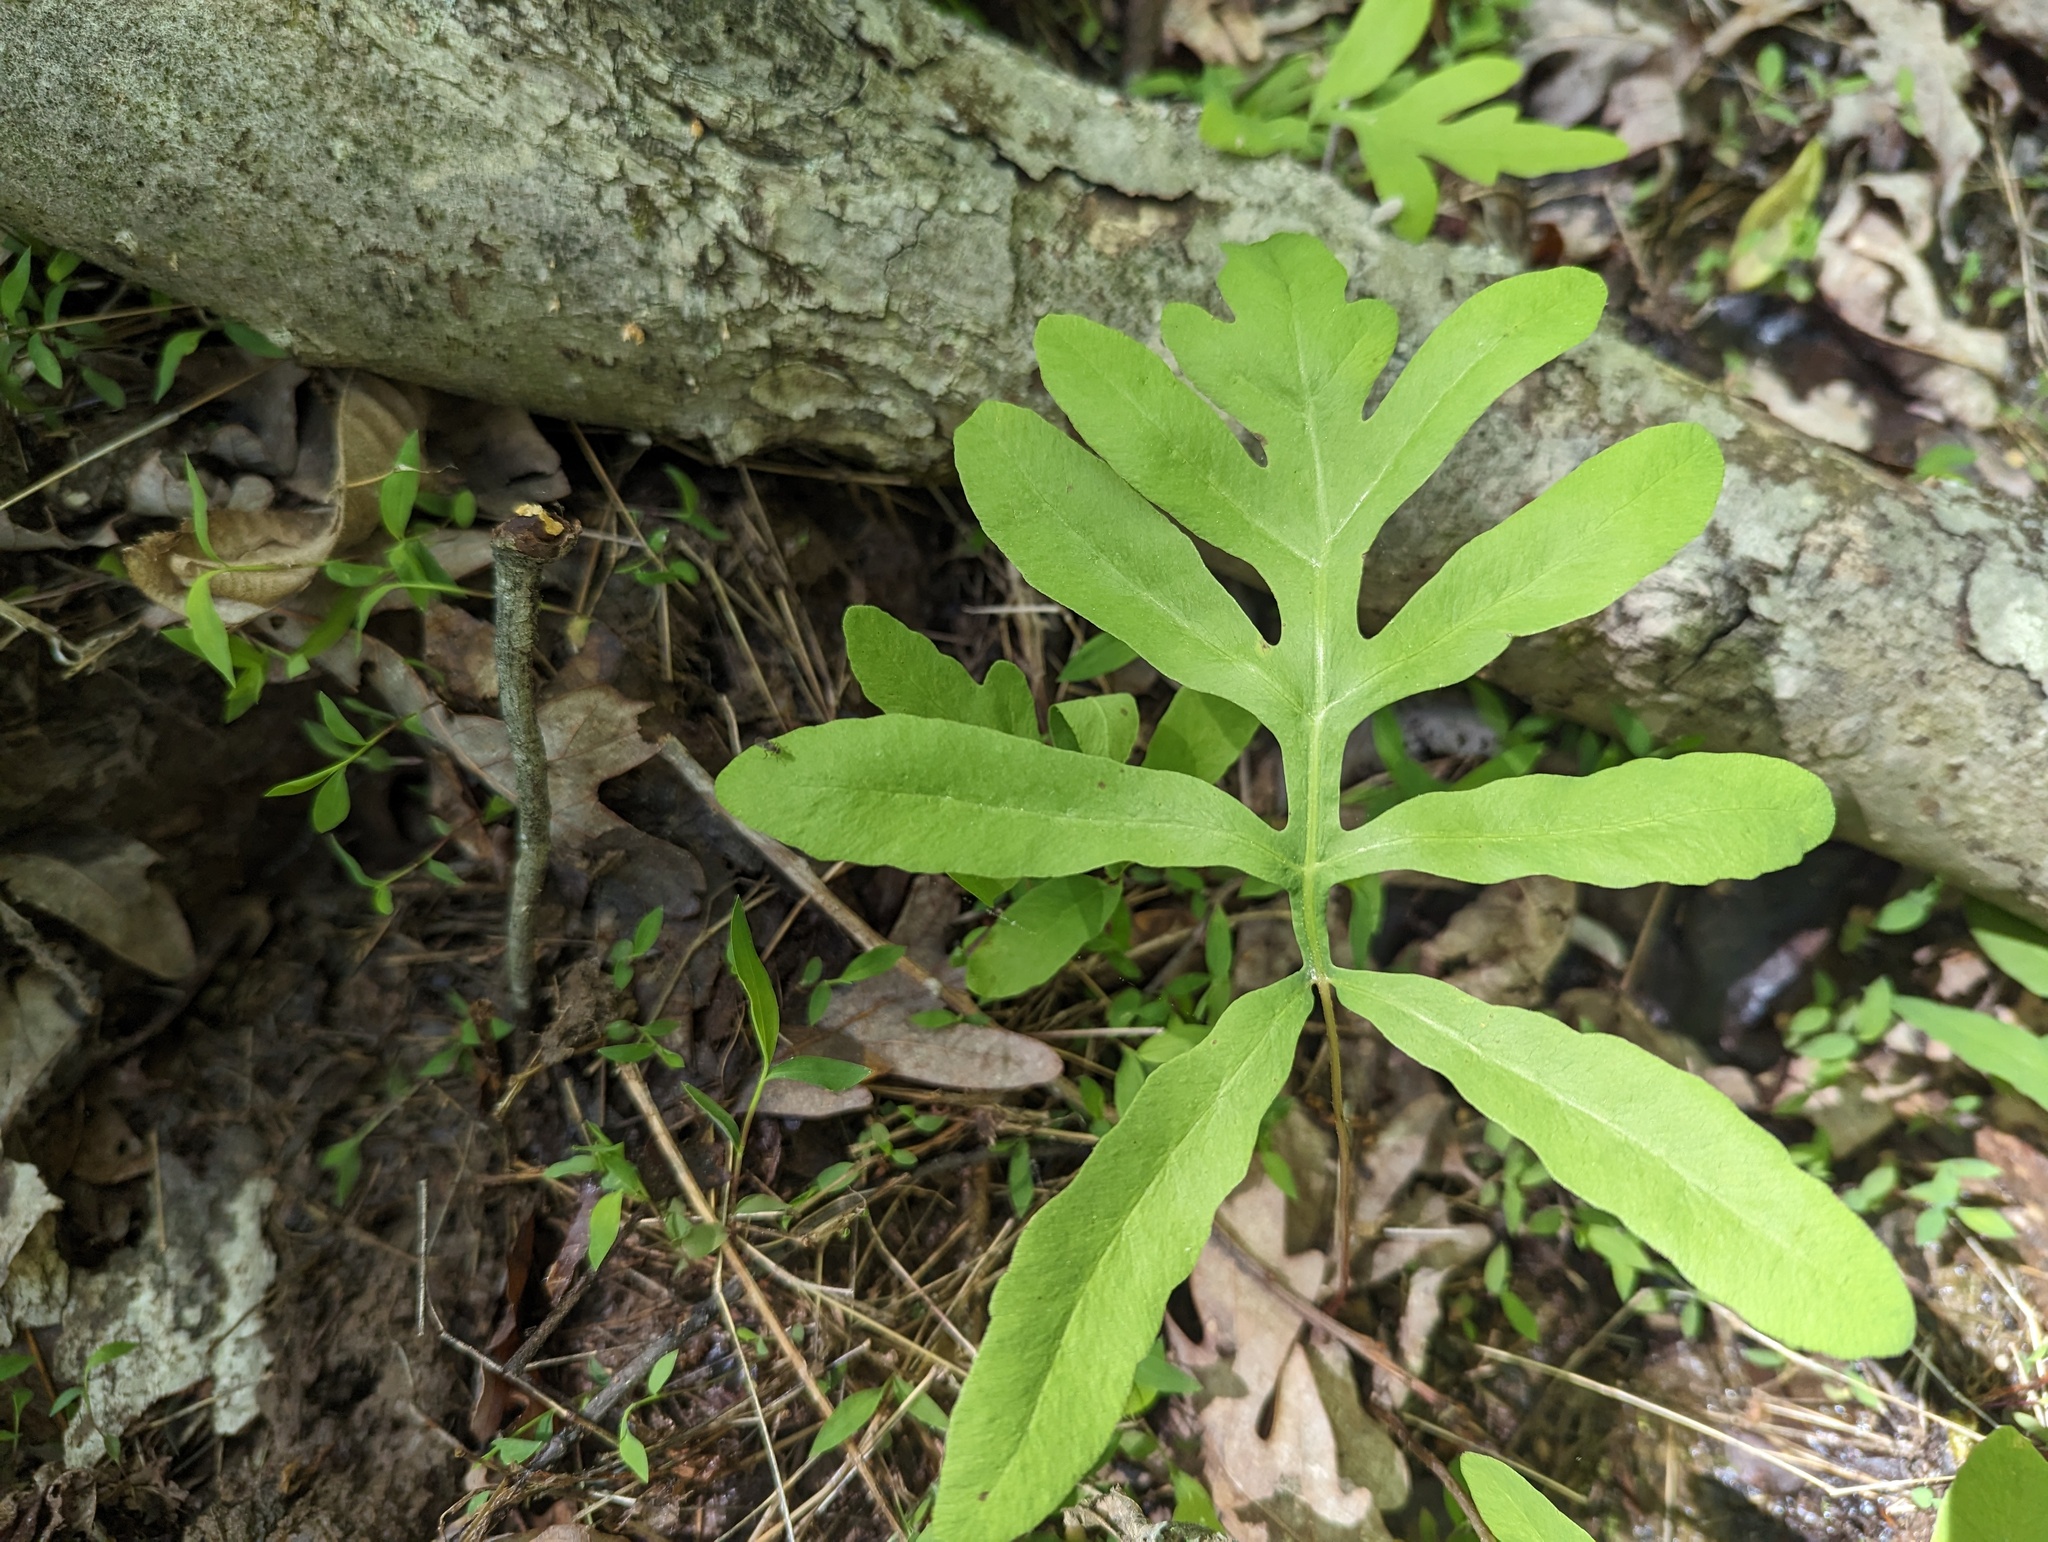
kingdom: Plantae
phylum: Tracheophyta
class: Polypodiopsida
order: Polypodiales
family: Onocleaceae
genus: Onoclea
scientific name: Onoclea sensibilis
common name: Sensitive fern
